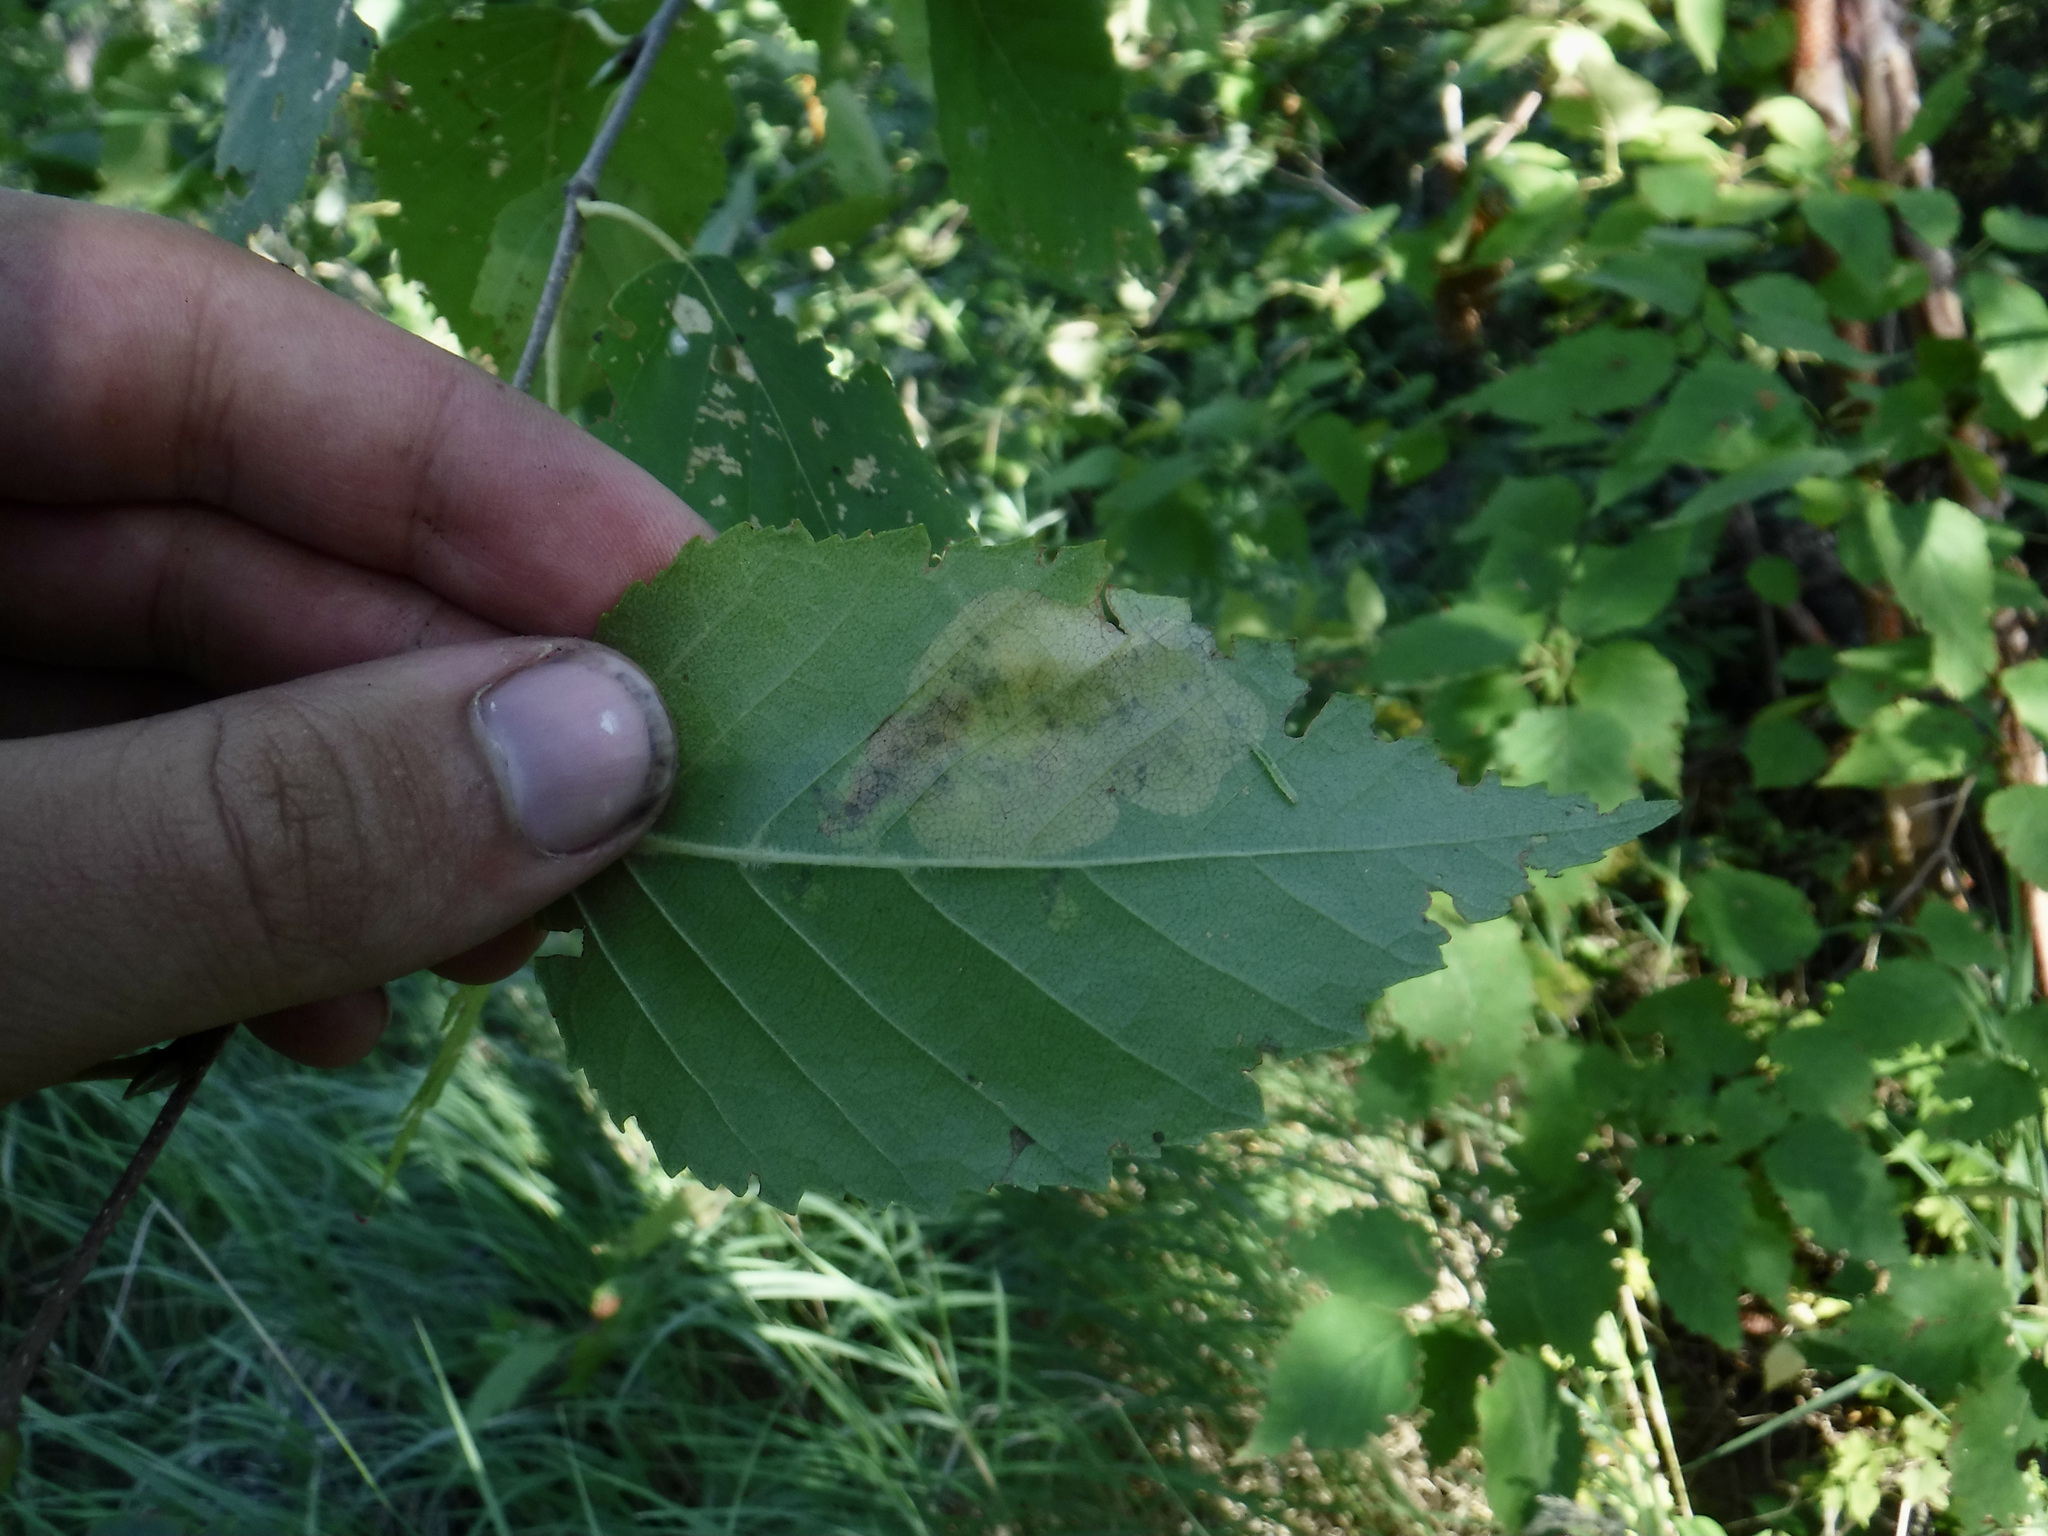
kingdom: Animalia
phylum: Arthropoda
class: Insecta
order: Hymenoptera
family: Tenthredinidae
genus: Profenusa
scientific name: Profenusa thomsoni
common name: Amber-marked birch leafminer
